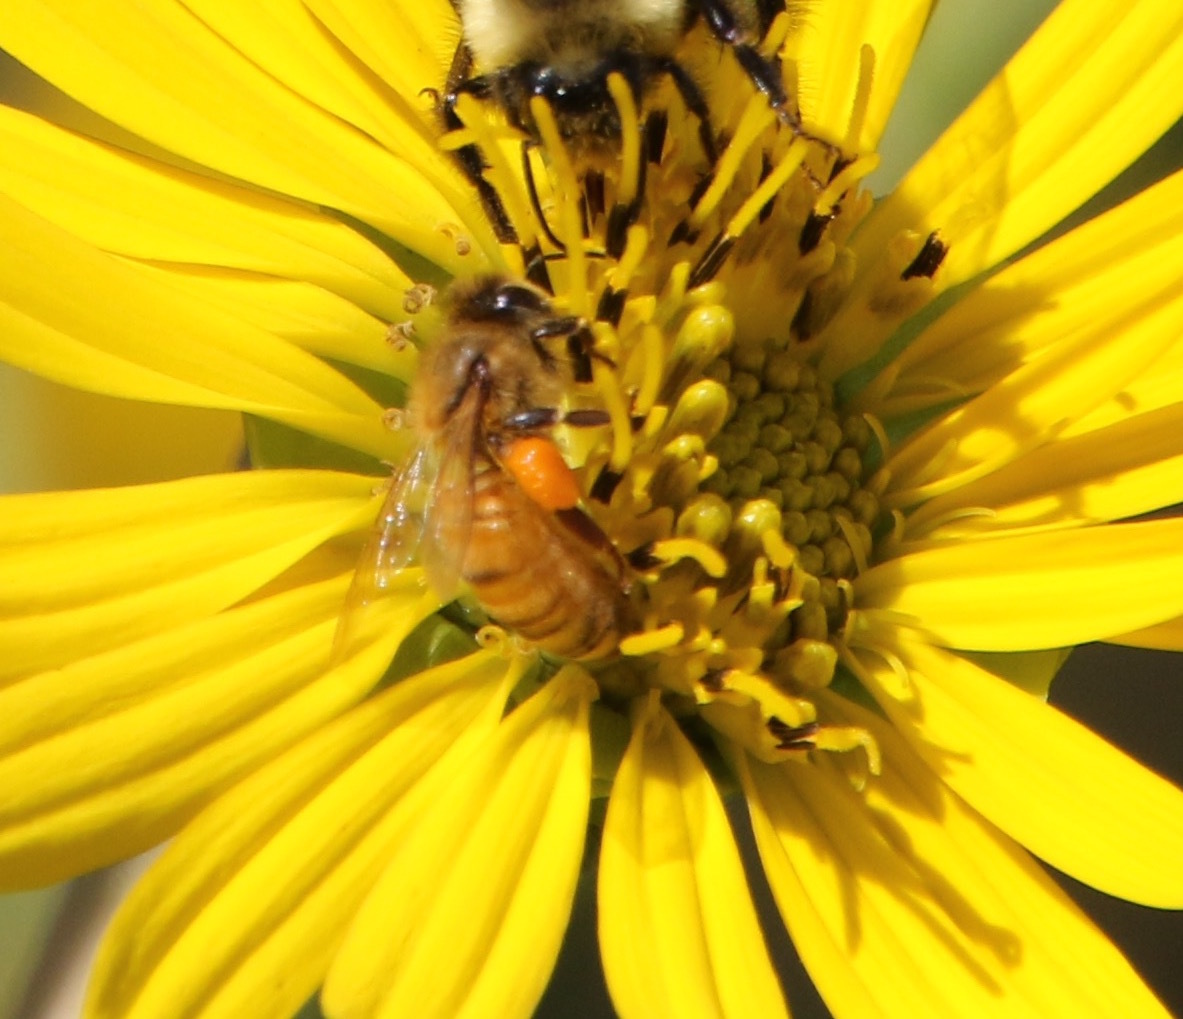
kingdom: Animalia
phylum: Arthropoda
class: Insecta
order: Hymenoptera
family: Apidae
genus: Apis
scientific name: Apis mellifera
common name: Honey bee
